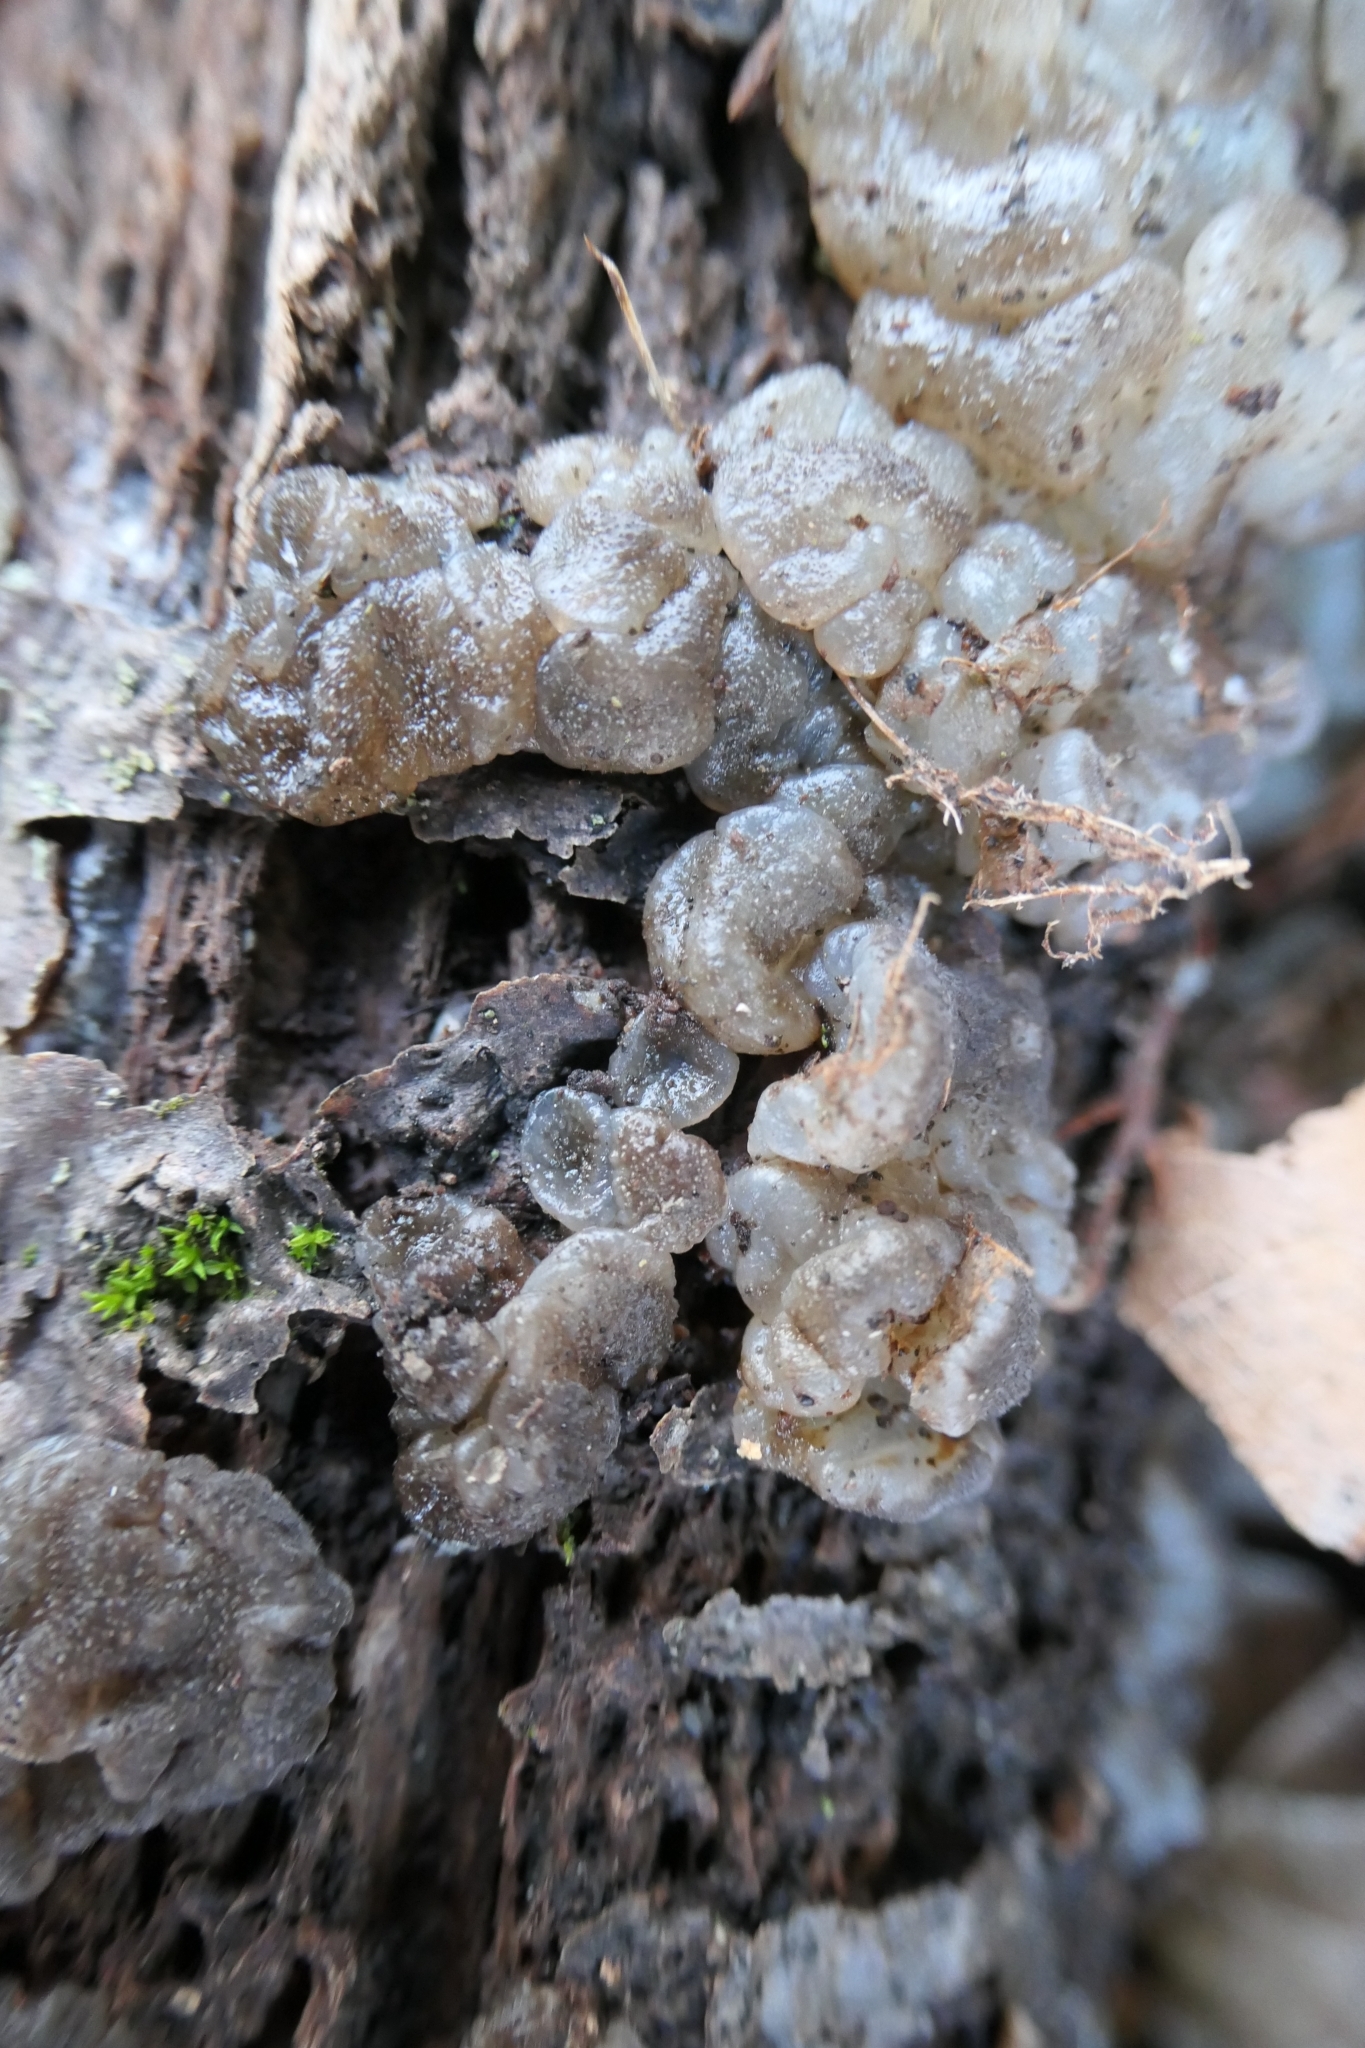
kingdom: Fungi
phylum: Basidiomycota
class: Agaricomycetes
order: Auriculariales
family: Auriculariaceae
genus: Tremellochaete
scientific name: Tremellochaete
